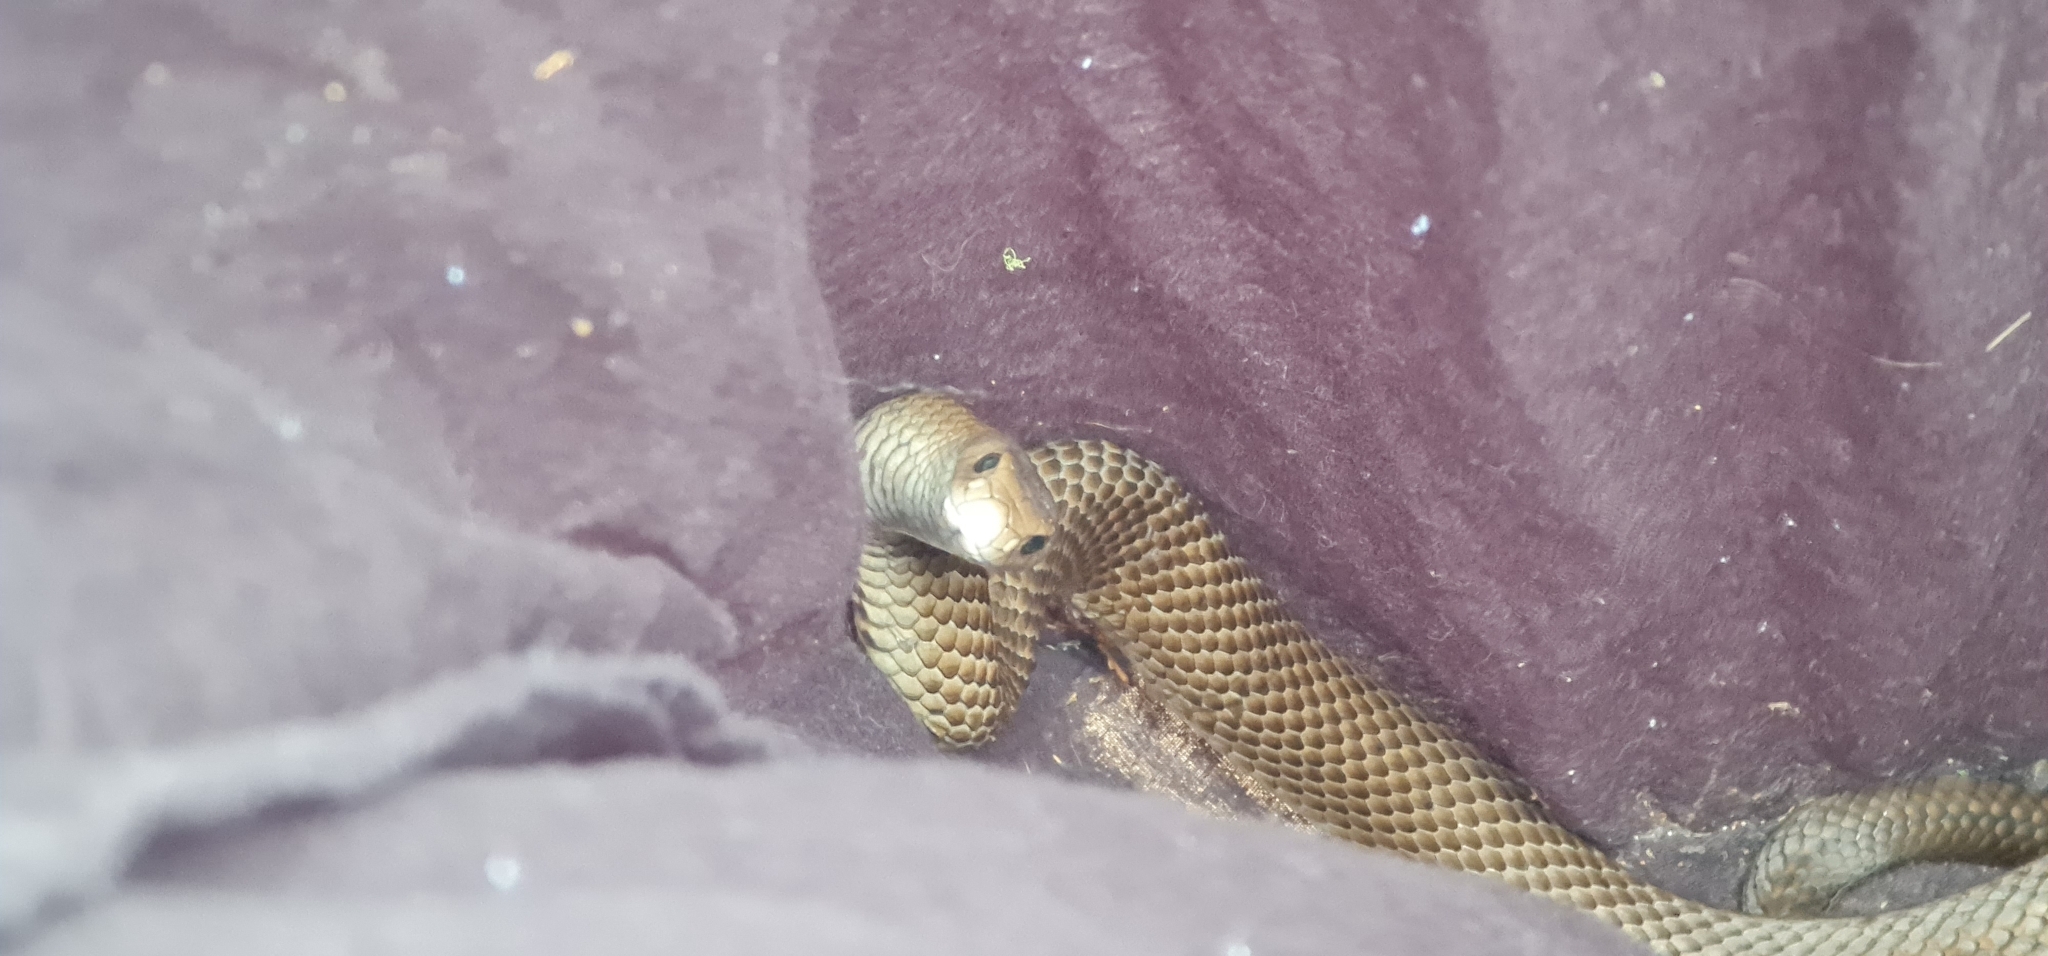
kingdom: Animalia
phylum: Chordata
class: Squamata
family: Elapidae
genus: Pseudonaja
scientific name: Pseudonaja textilis
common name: Eastern brown snake
